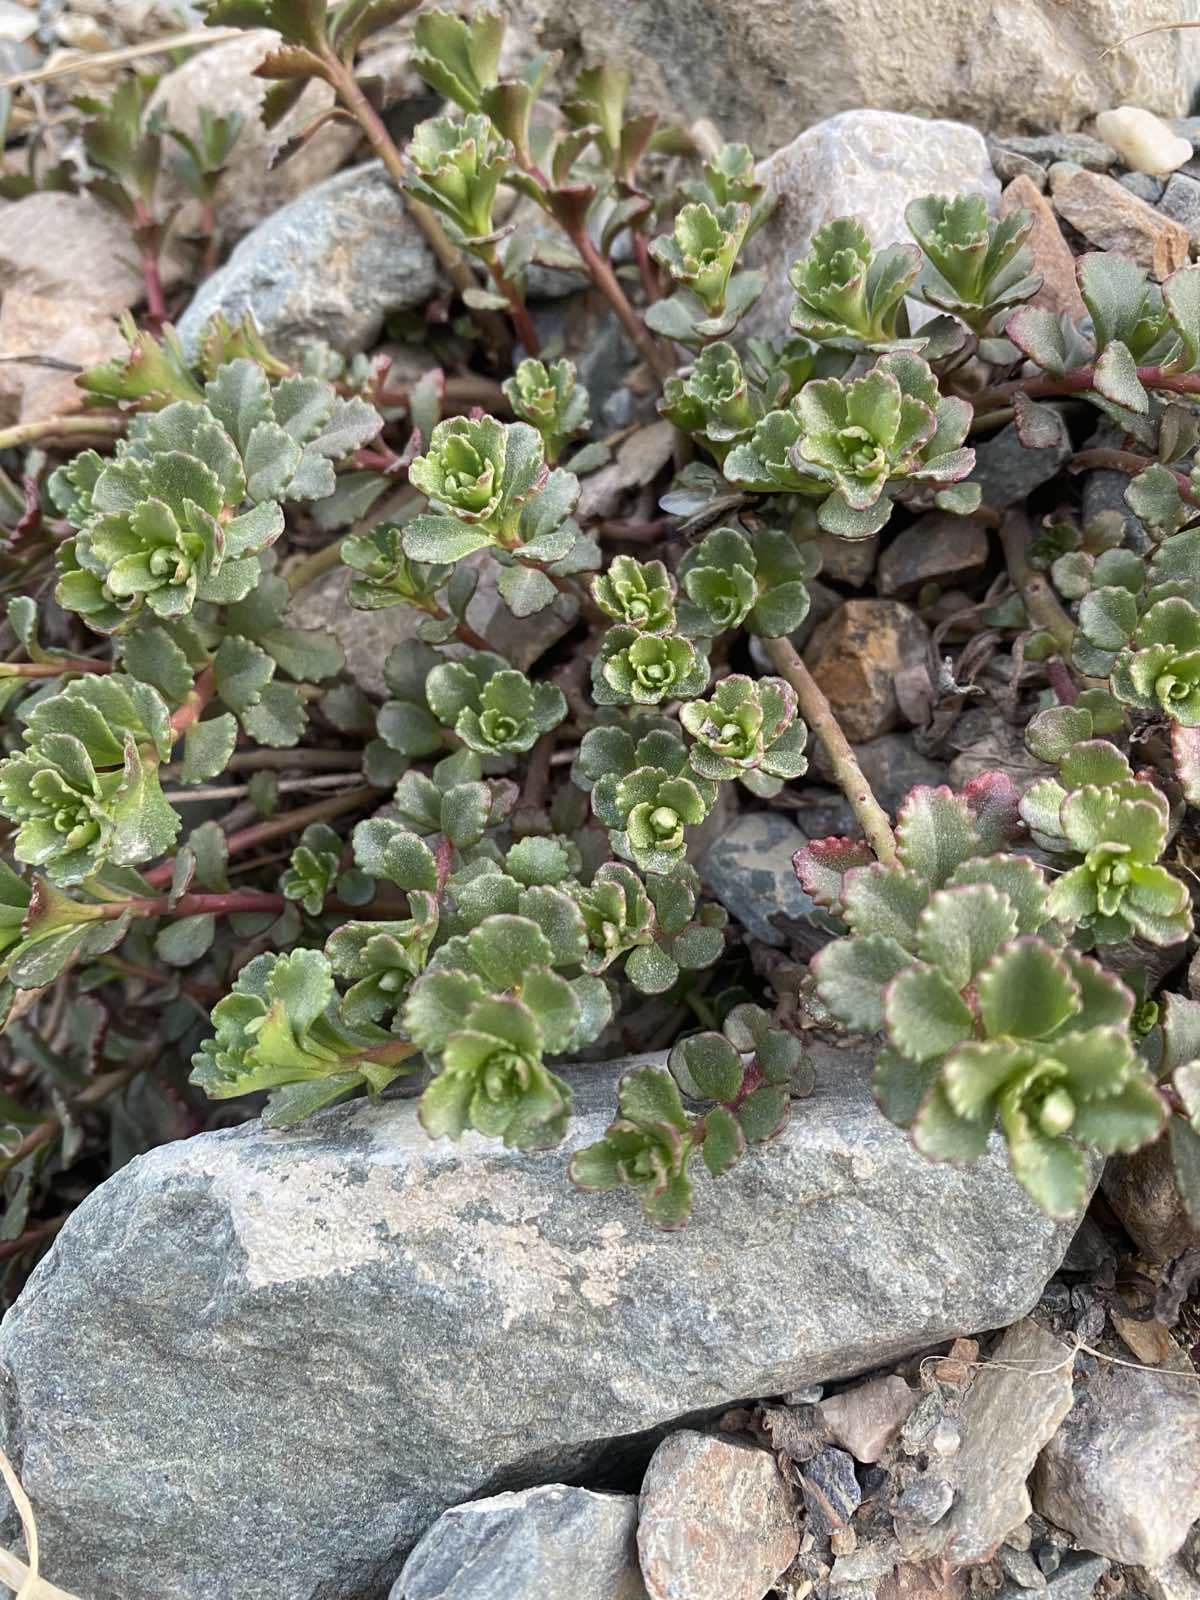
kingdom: Plantae
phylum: Tracheophyta
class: Magnoliopsida
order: Saxifragales
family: Crassulaceae
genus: Phedimus
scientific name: Phedimus hybridus
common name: Hybrid stonecrop
